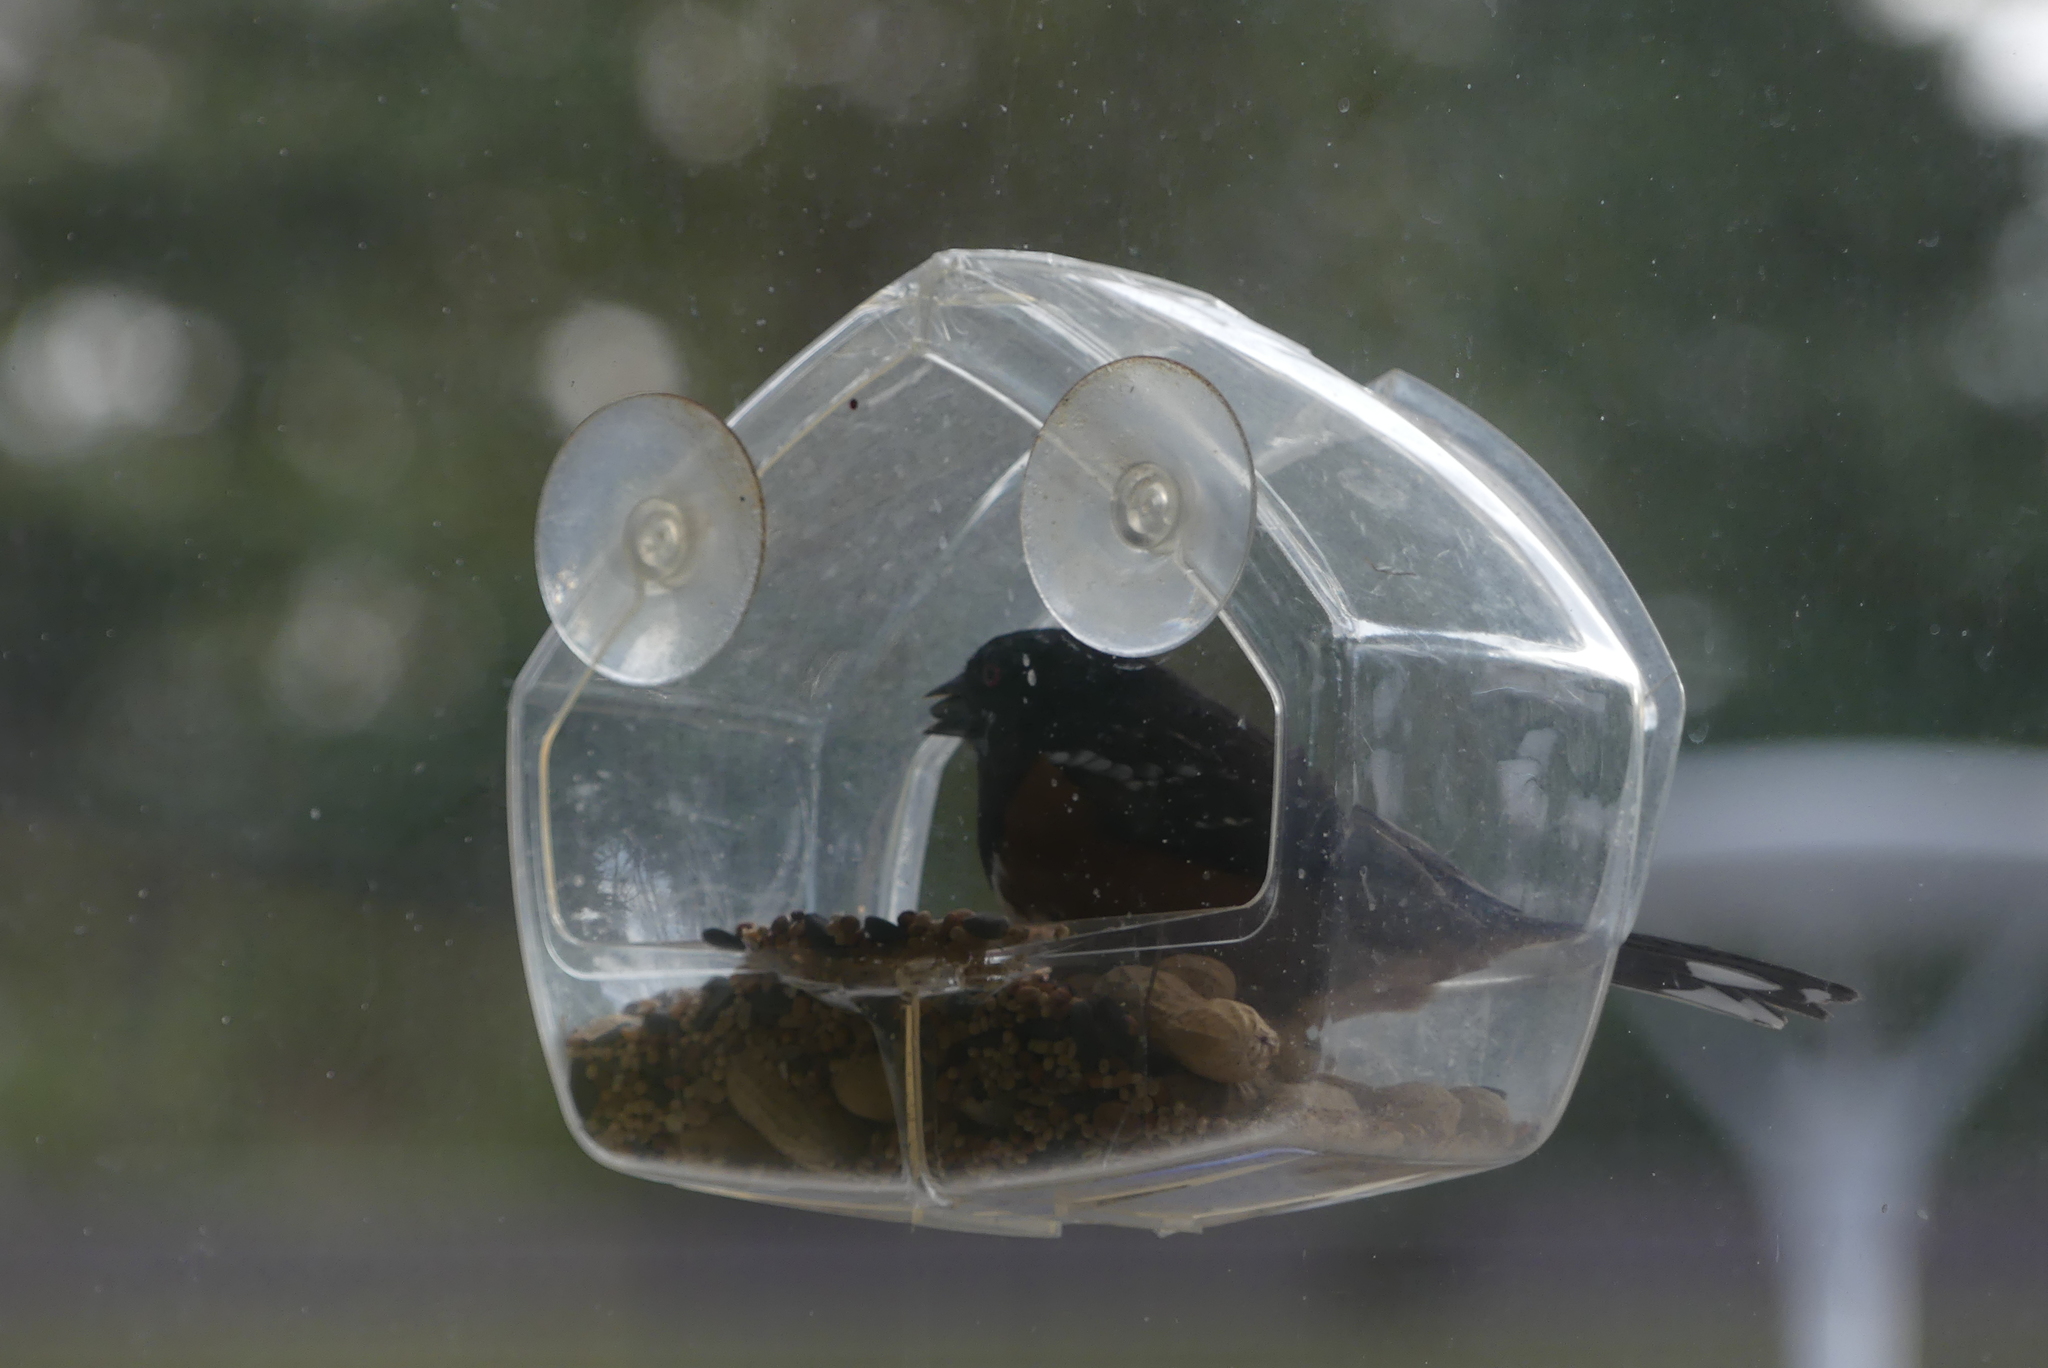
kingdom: Animalia
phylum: Chordata
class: Aves
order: Passeriformes
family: Passerellidae
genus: Pipilo
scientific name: Pipilo maculatus
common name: Spotted towhee
